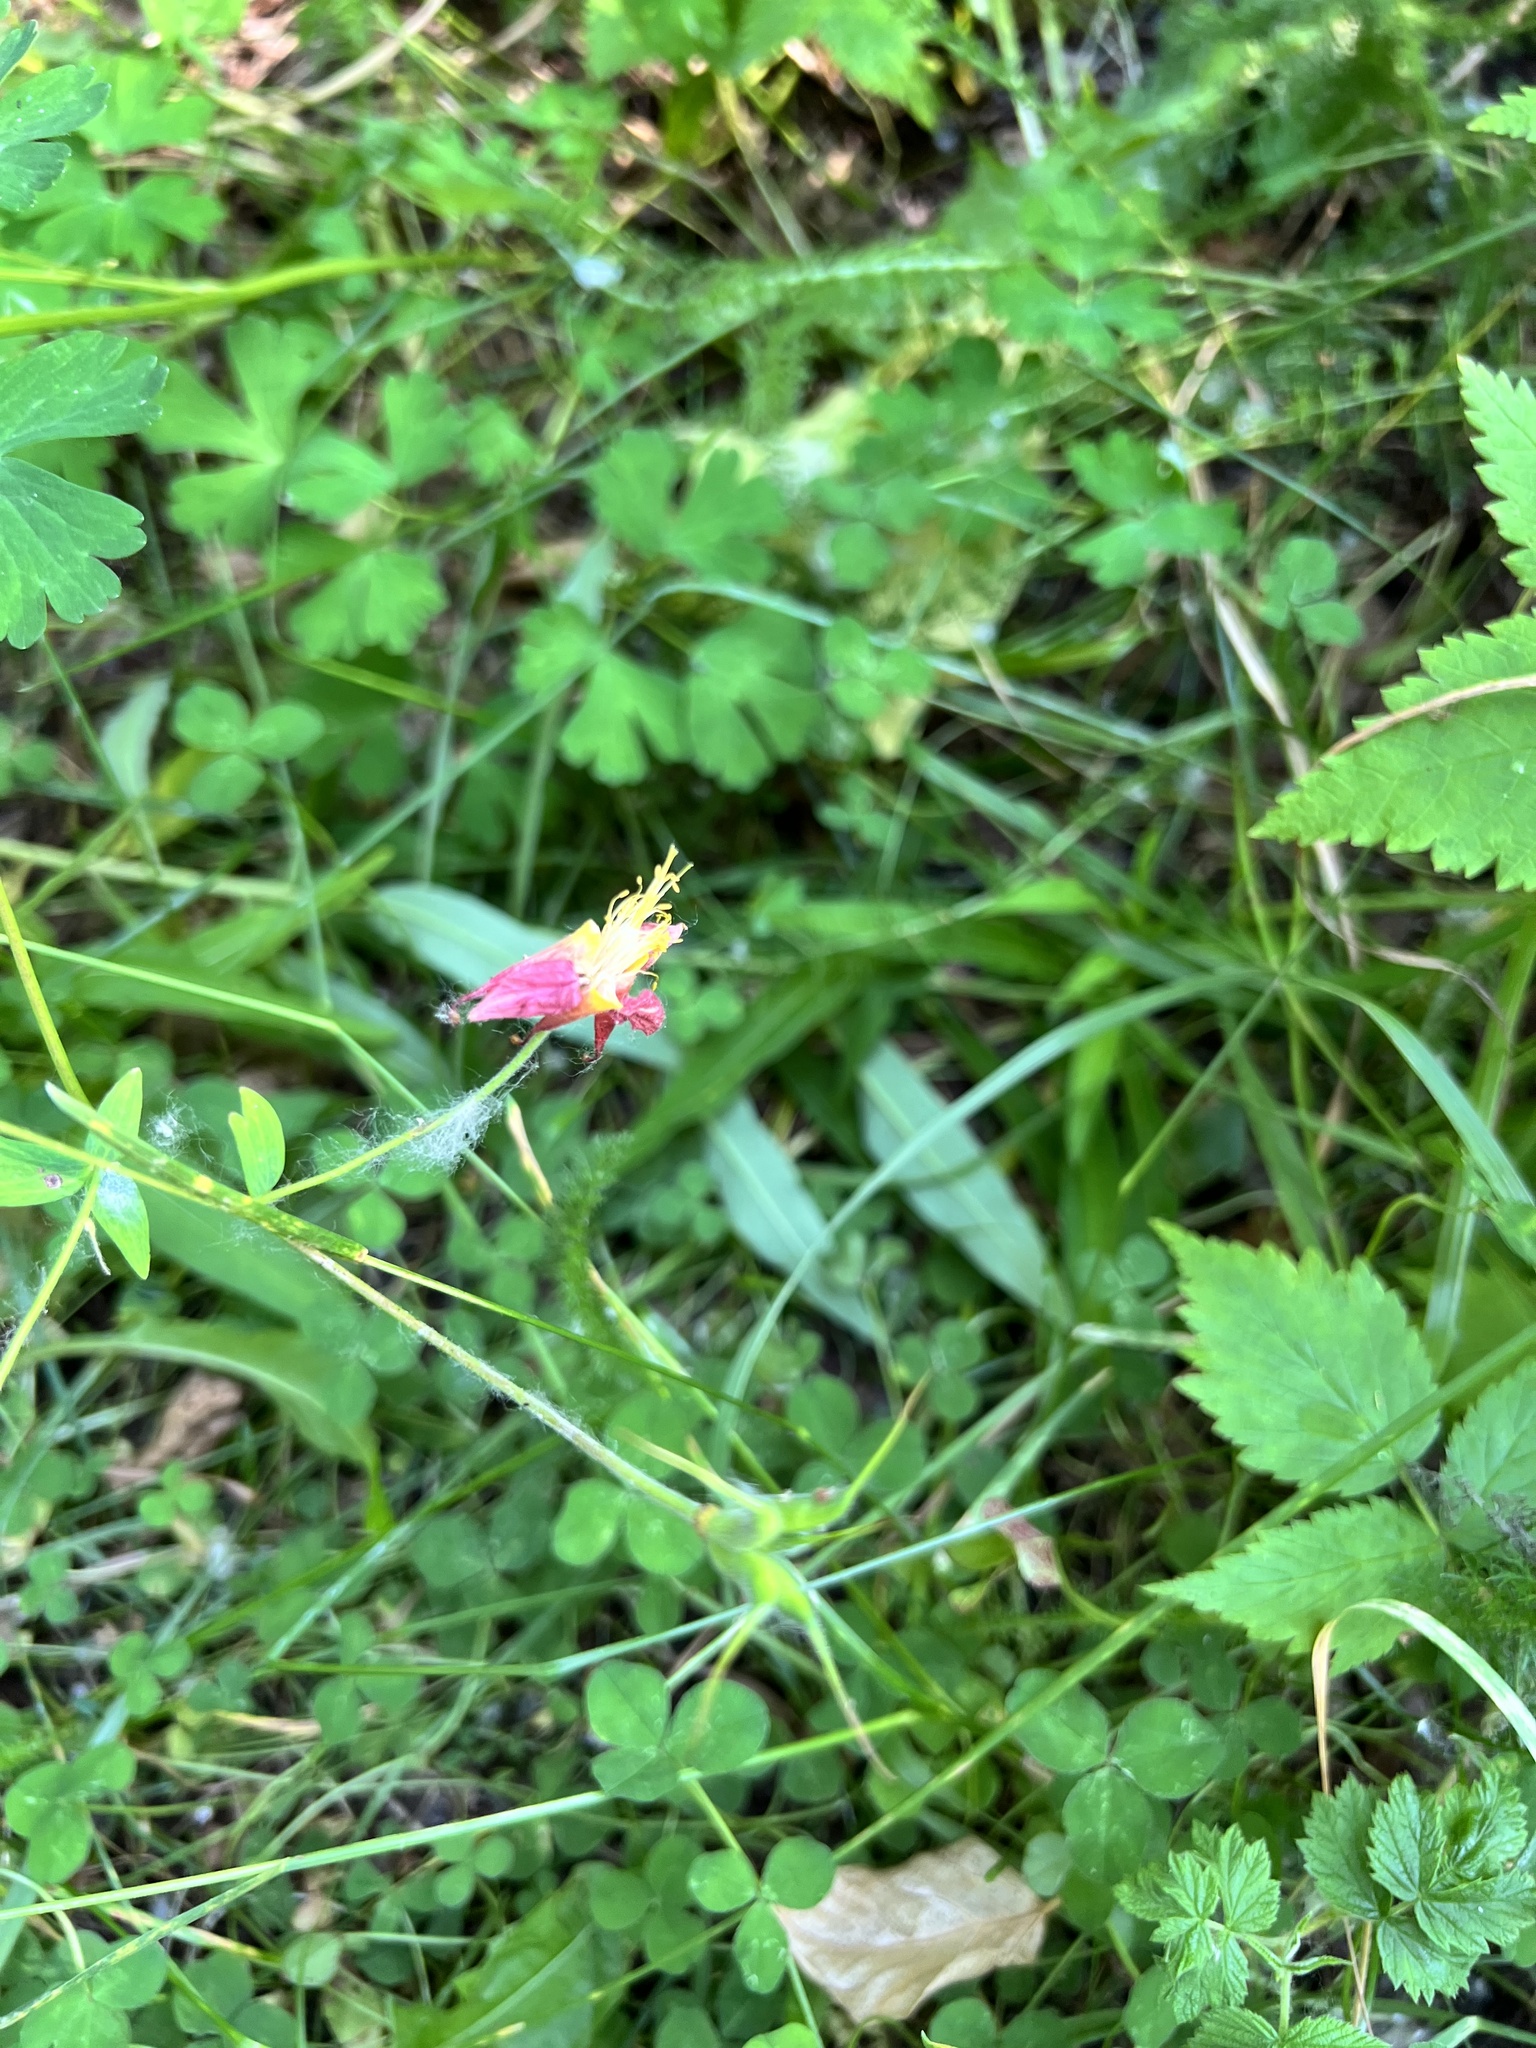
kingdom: Plantae
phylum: Tracheophyta
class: Magnoliopsida
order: Ranunculales
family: Ranunculaceae
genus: Aquilegia
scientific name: Aquilegia formosa
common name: Sitka columbine
